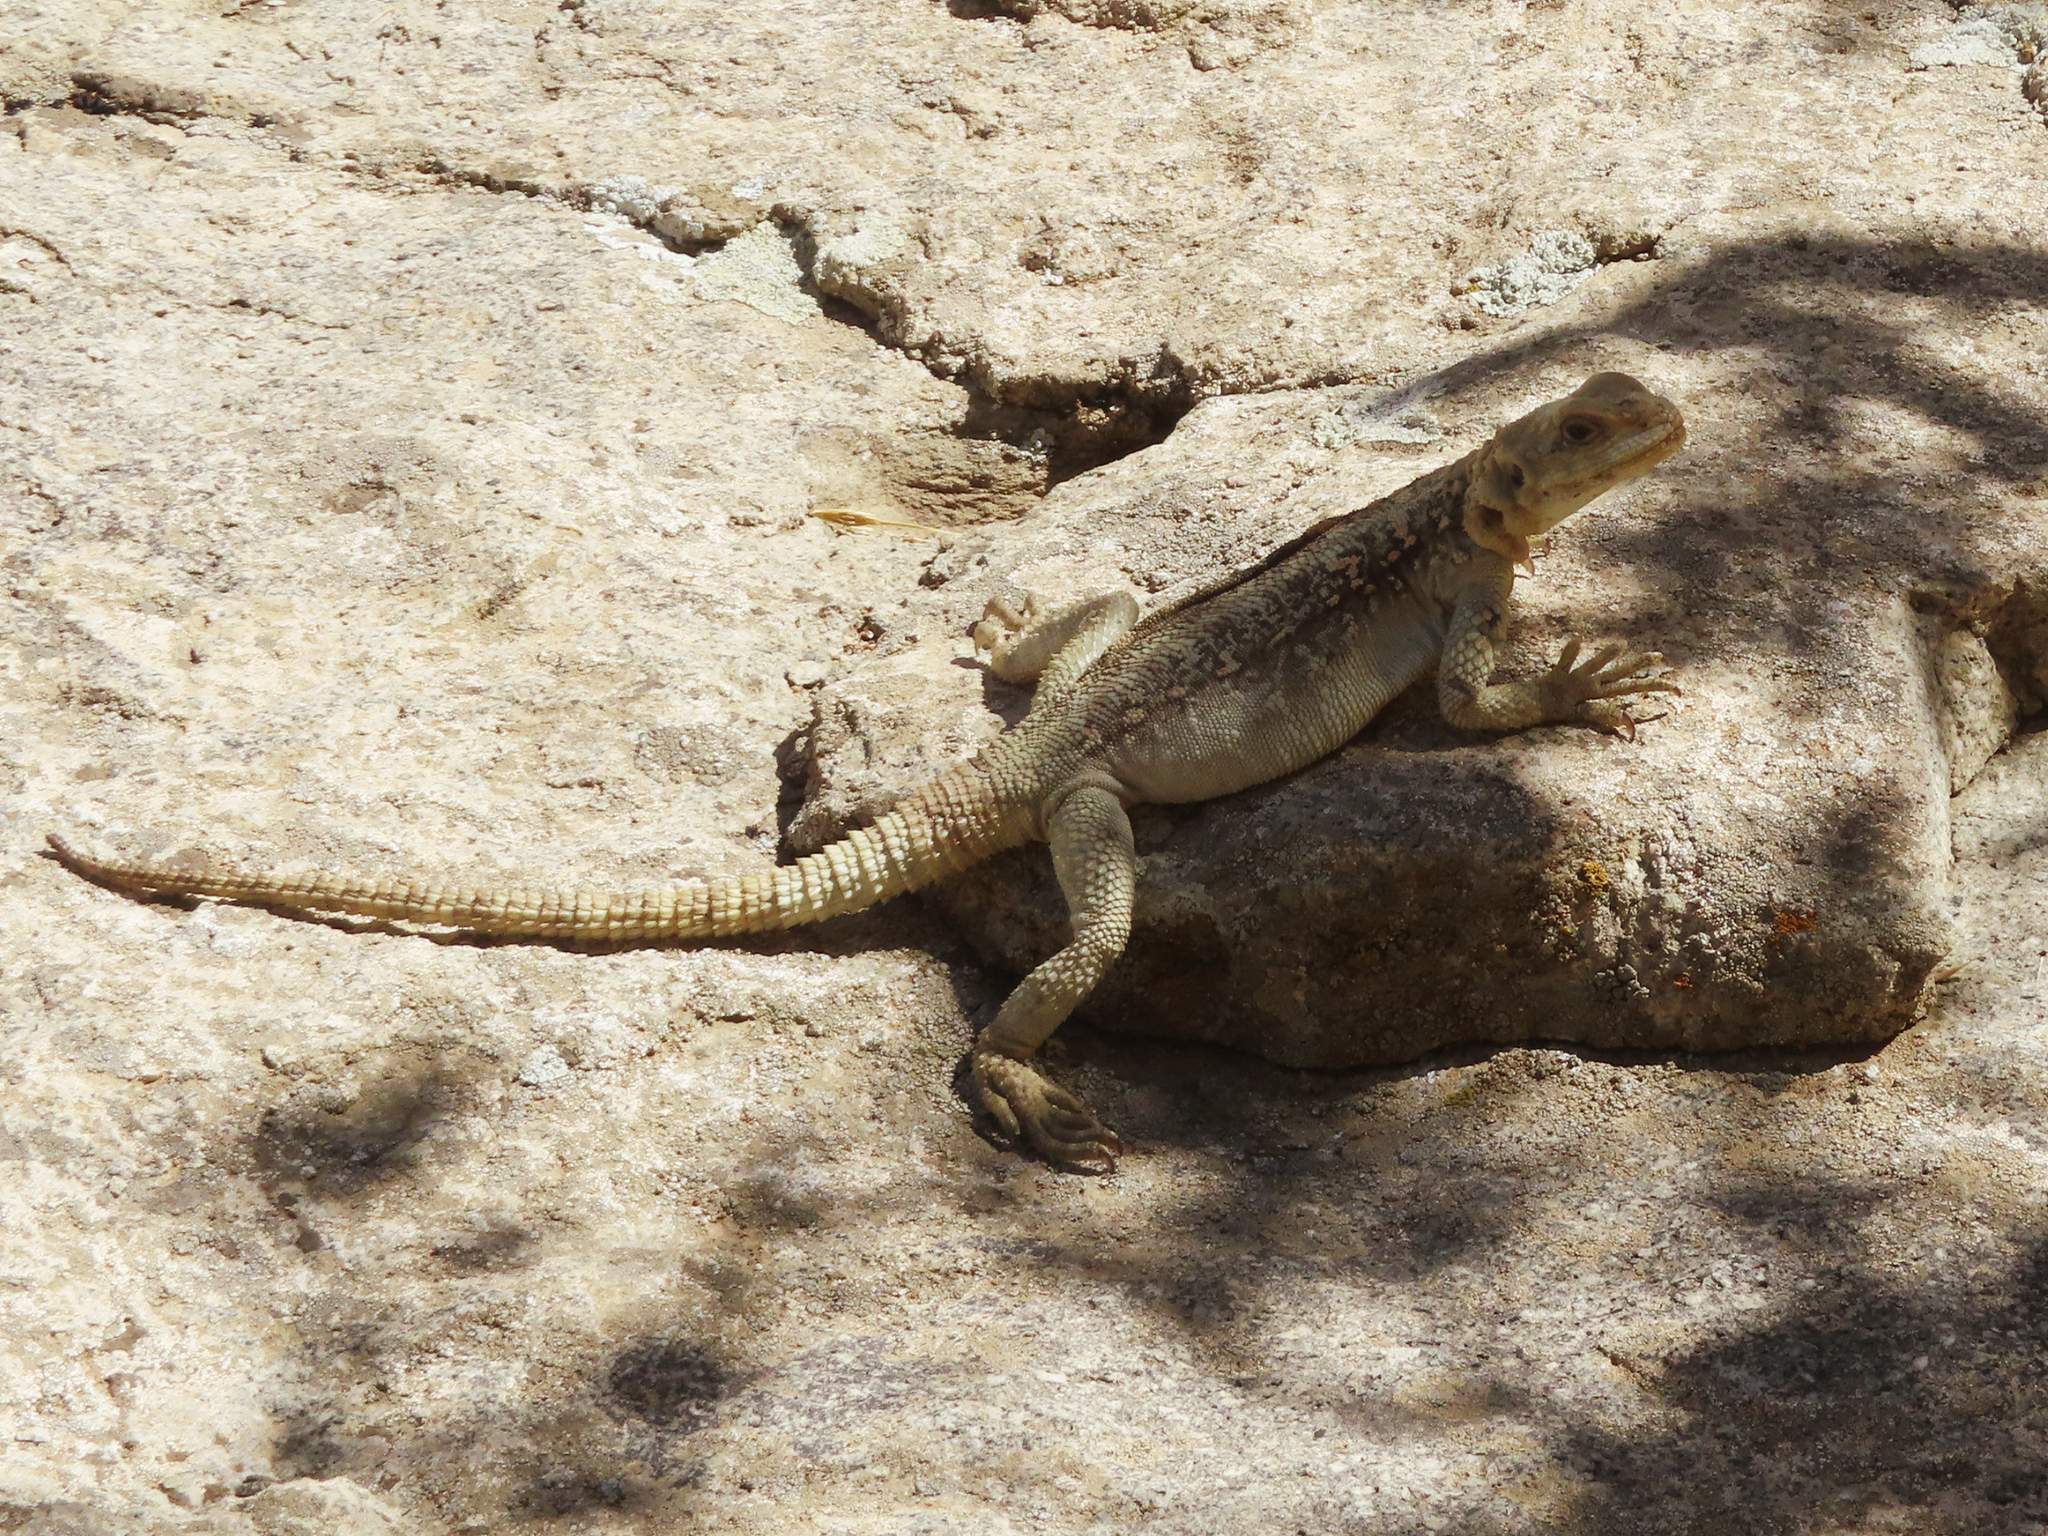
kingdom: Animalia
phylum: Chordata
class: Squamata
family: Agamidae
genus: Paralaudakia
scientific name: Paralaudakia caucasia
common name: Caucasian agama
